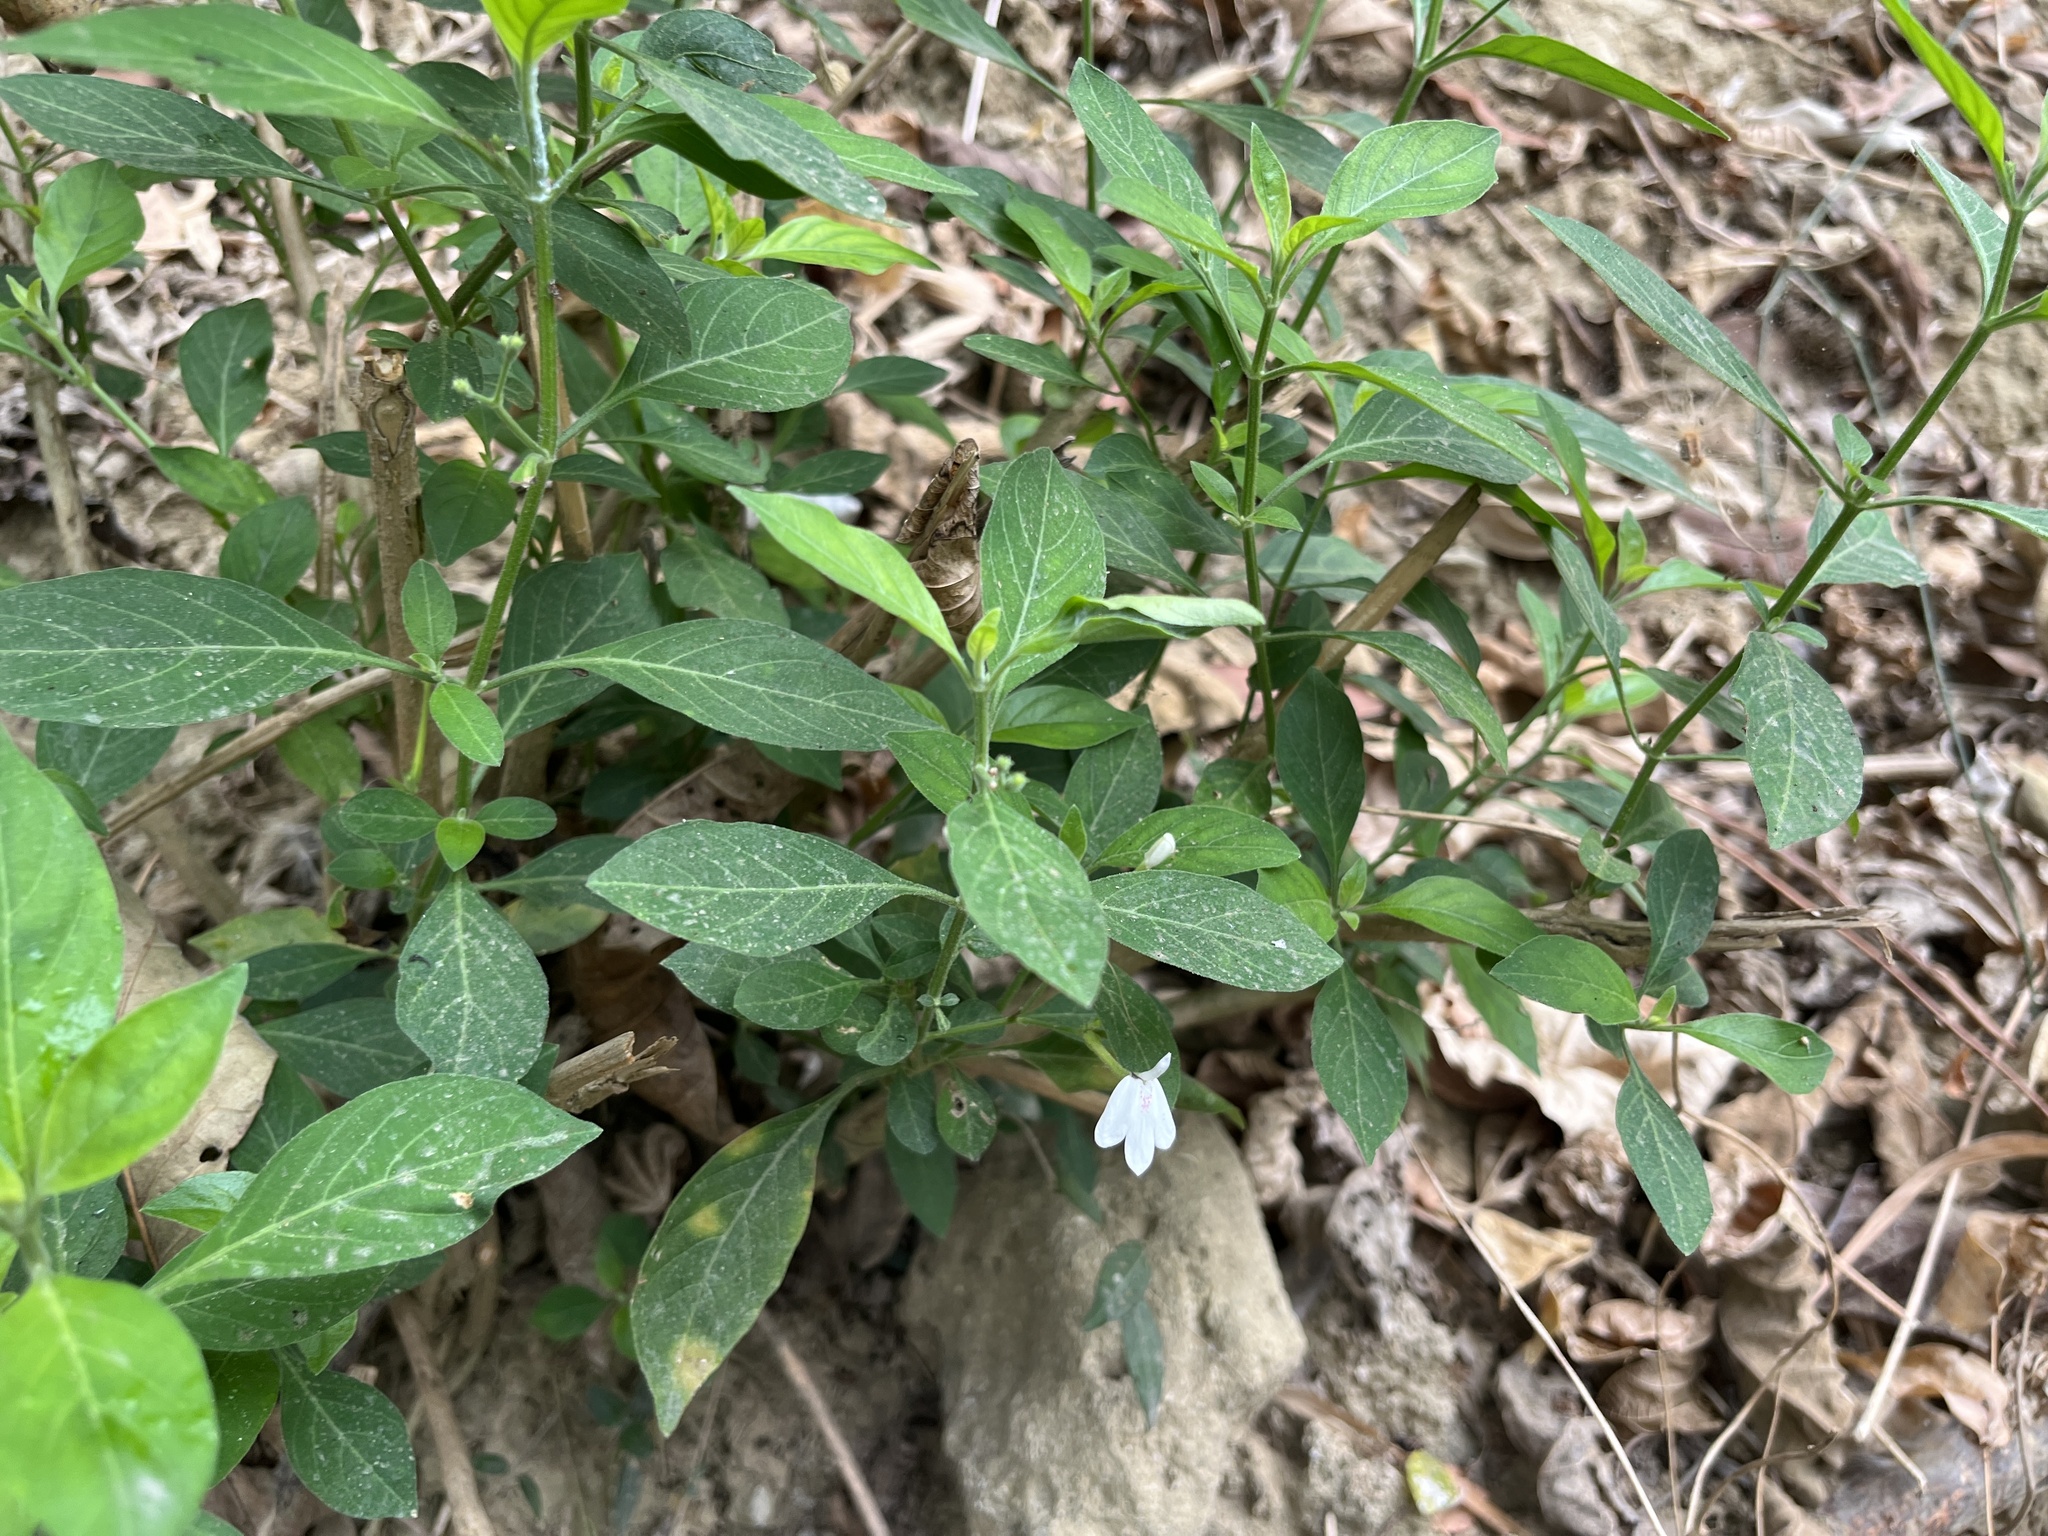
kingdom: Plantae
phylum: Tracheophyta
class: Magnoliopsida
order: Lamiales
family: Acanthaceae
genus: Rhinacanthus
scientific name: Rhinacanthus nasutus
